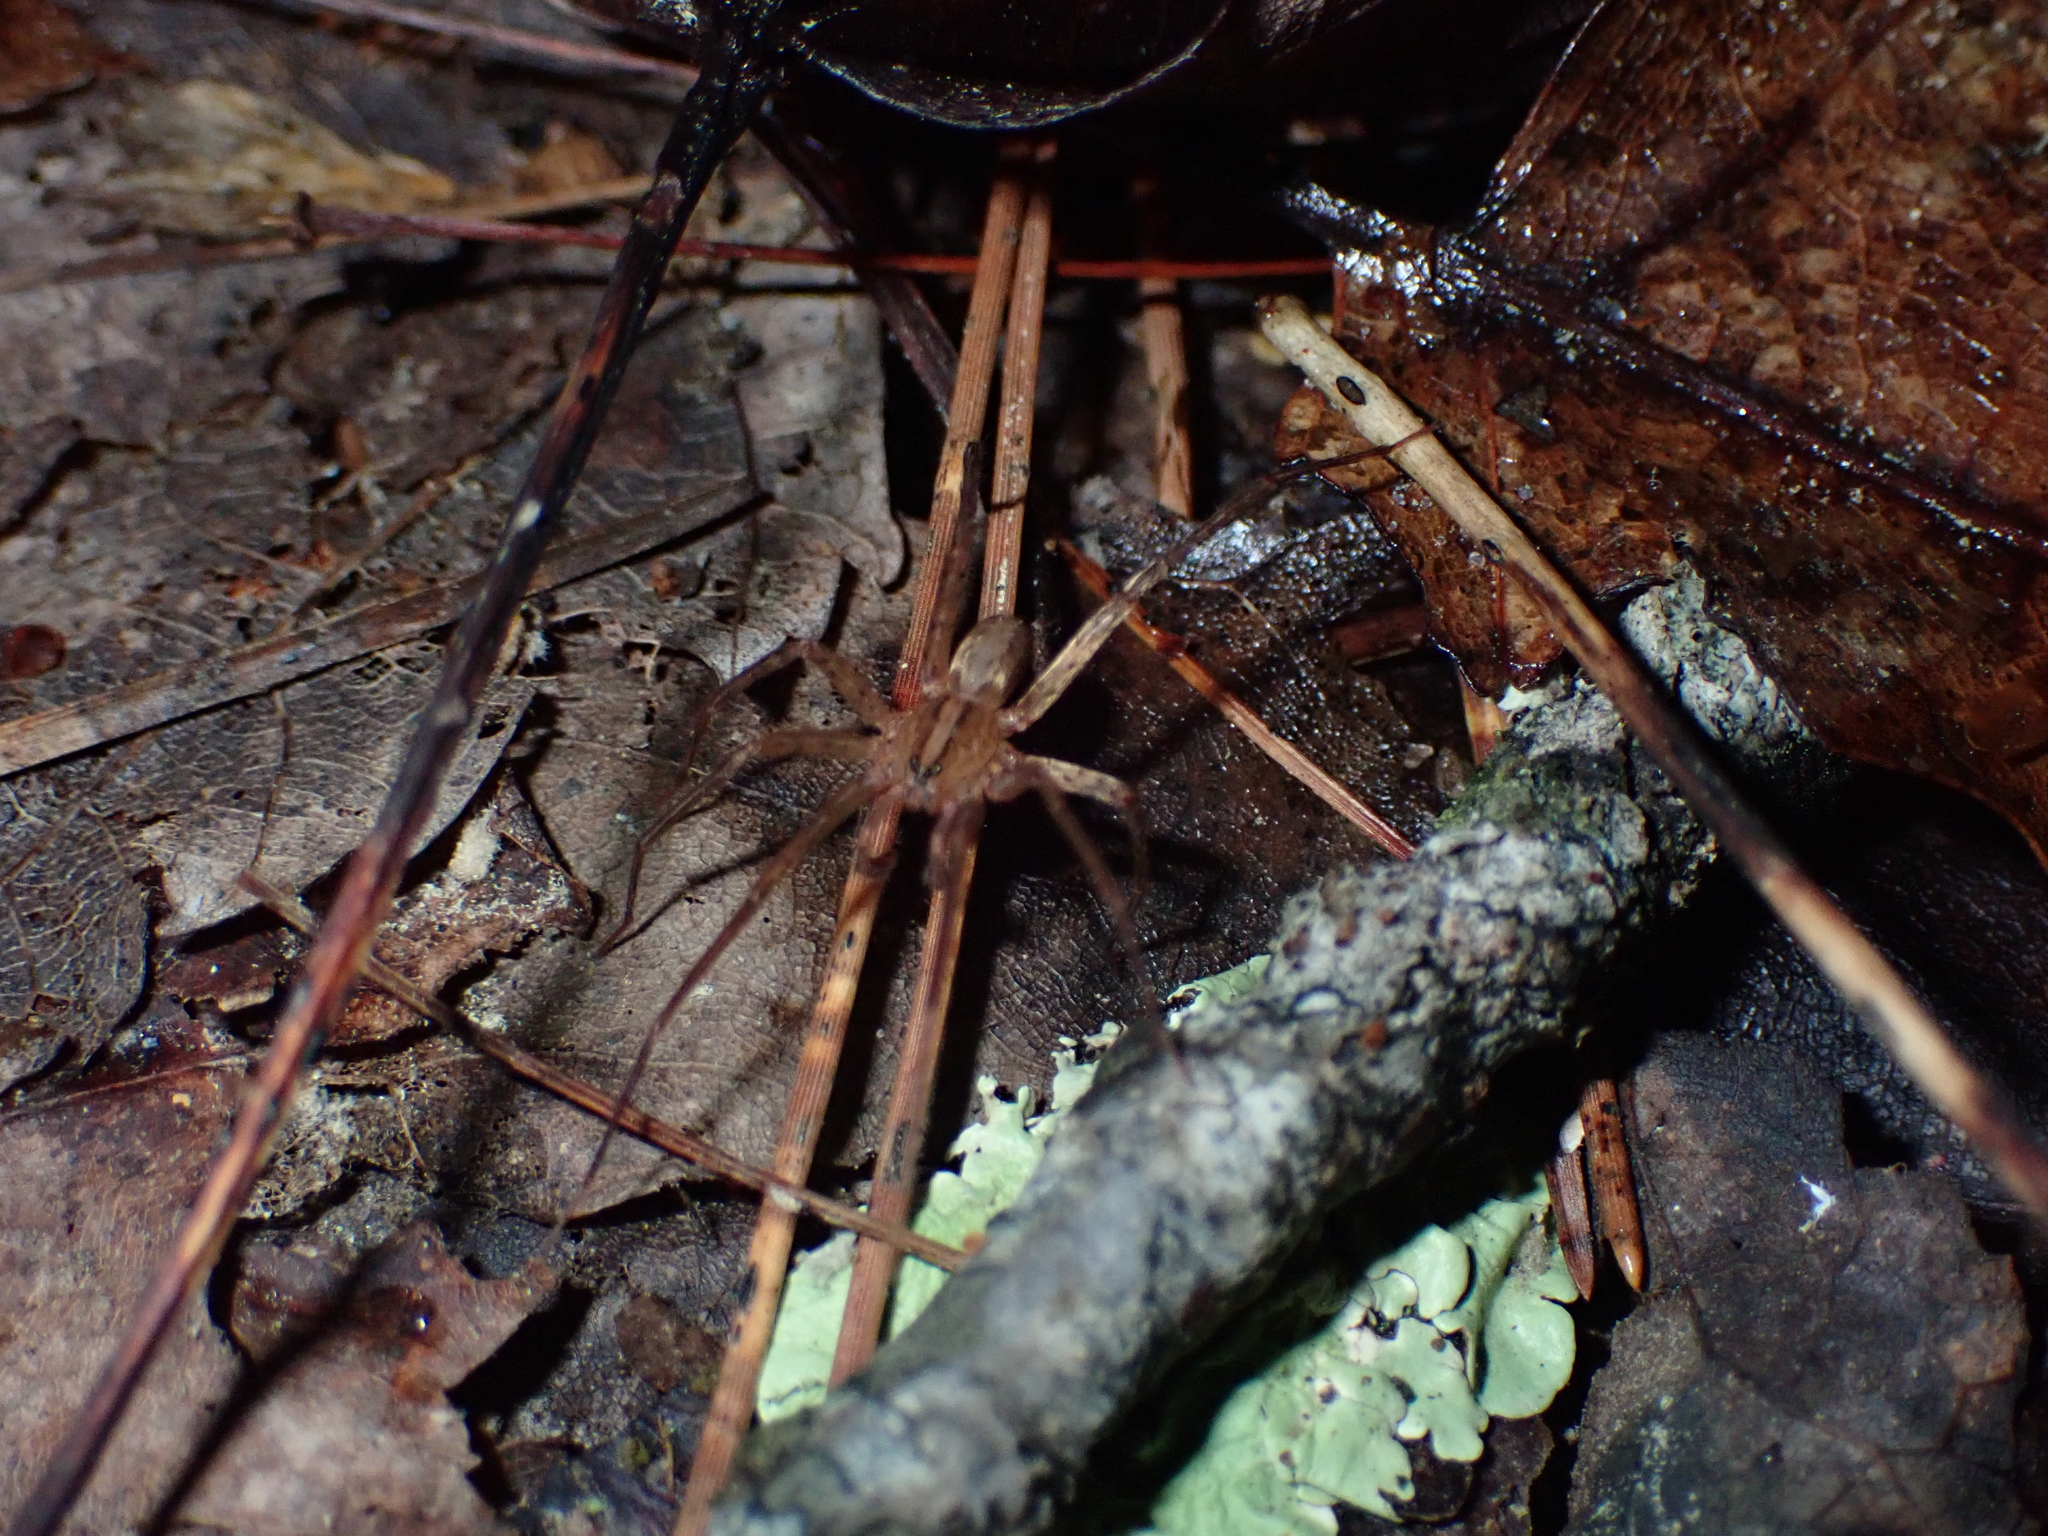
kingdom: Animalia
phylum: Arthropoda
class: Arachnida
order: Araneae
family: Ctenidae
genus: Anahita
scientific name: Anahita punctulata
